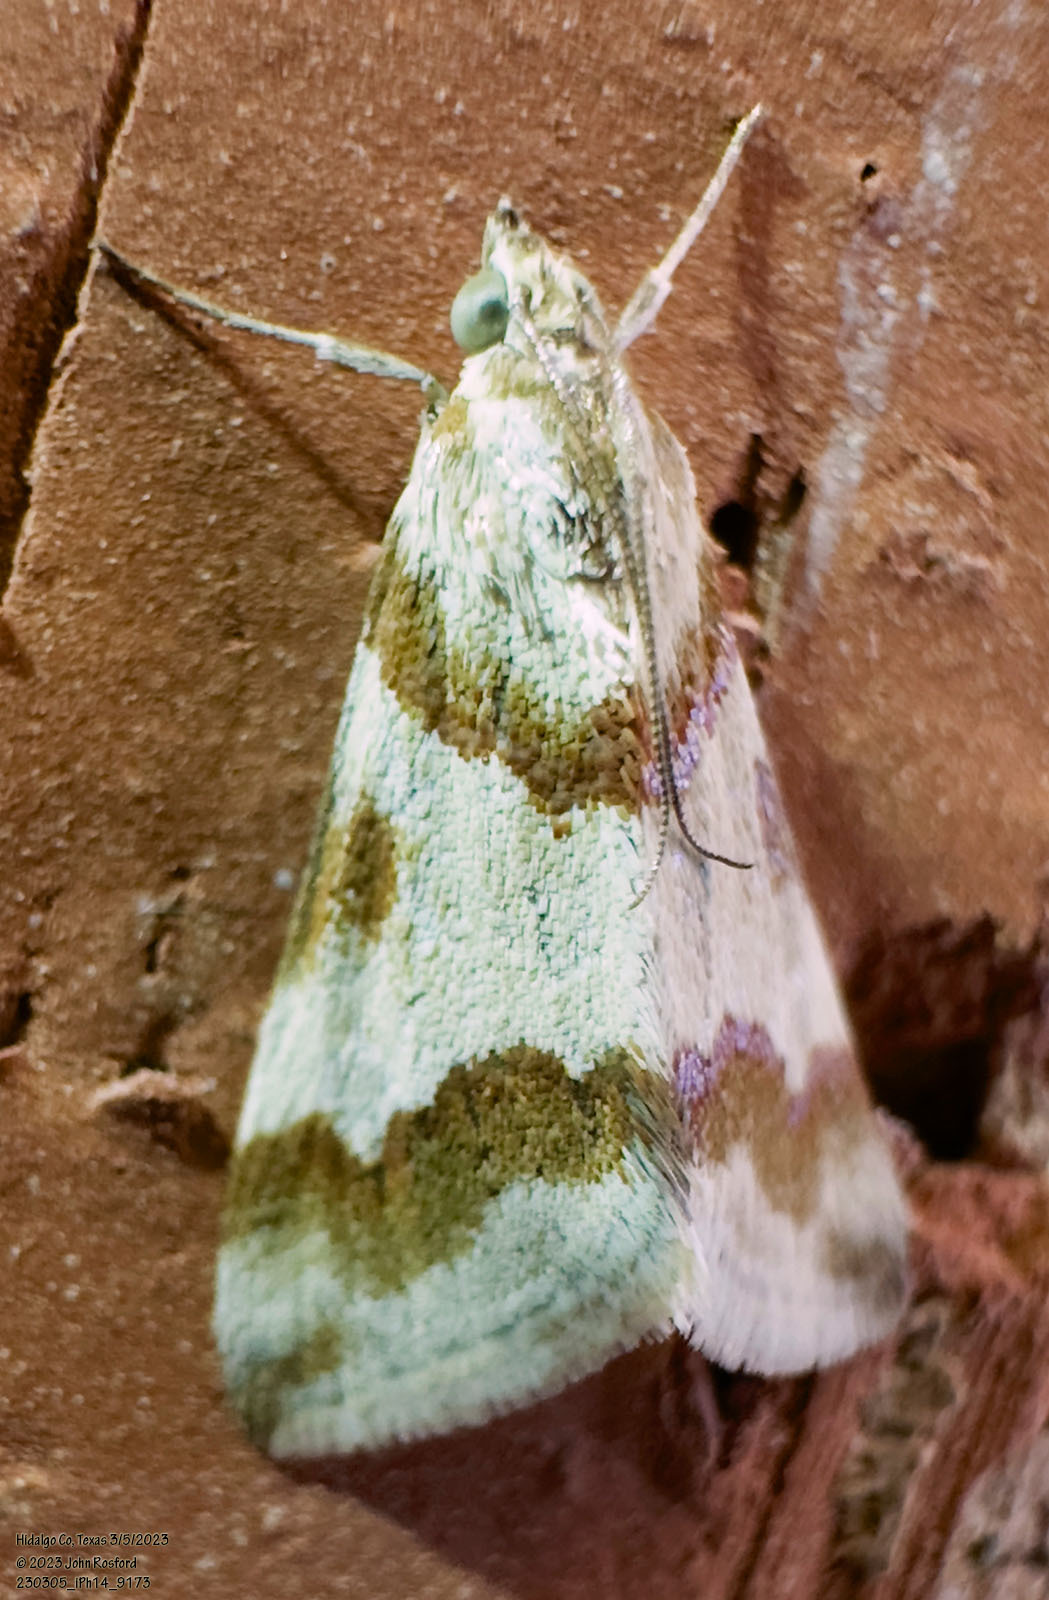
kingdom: Animalia
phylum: Arthropoda
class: Insecta
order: Lepidoptera
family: Crambidae
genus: Noctuelia
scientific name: Noctuelia Mimoschinia rufofascialis
